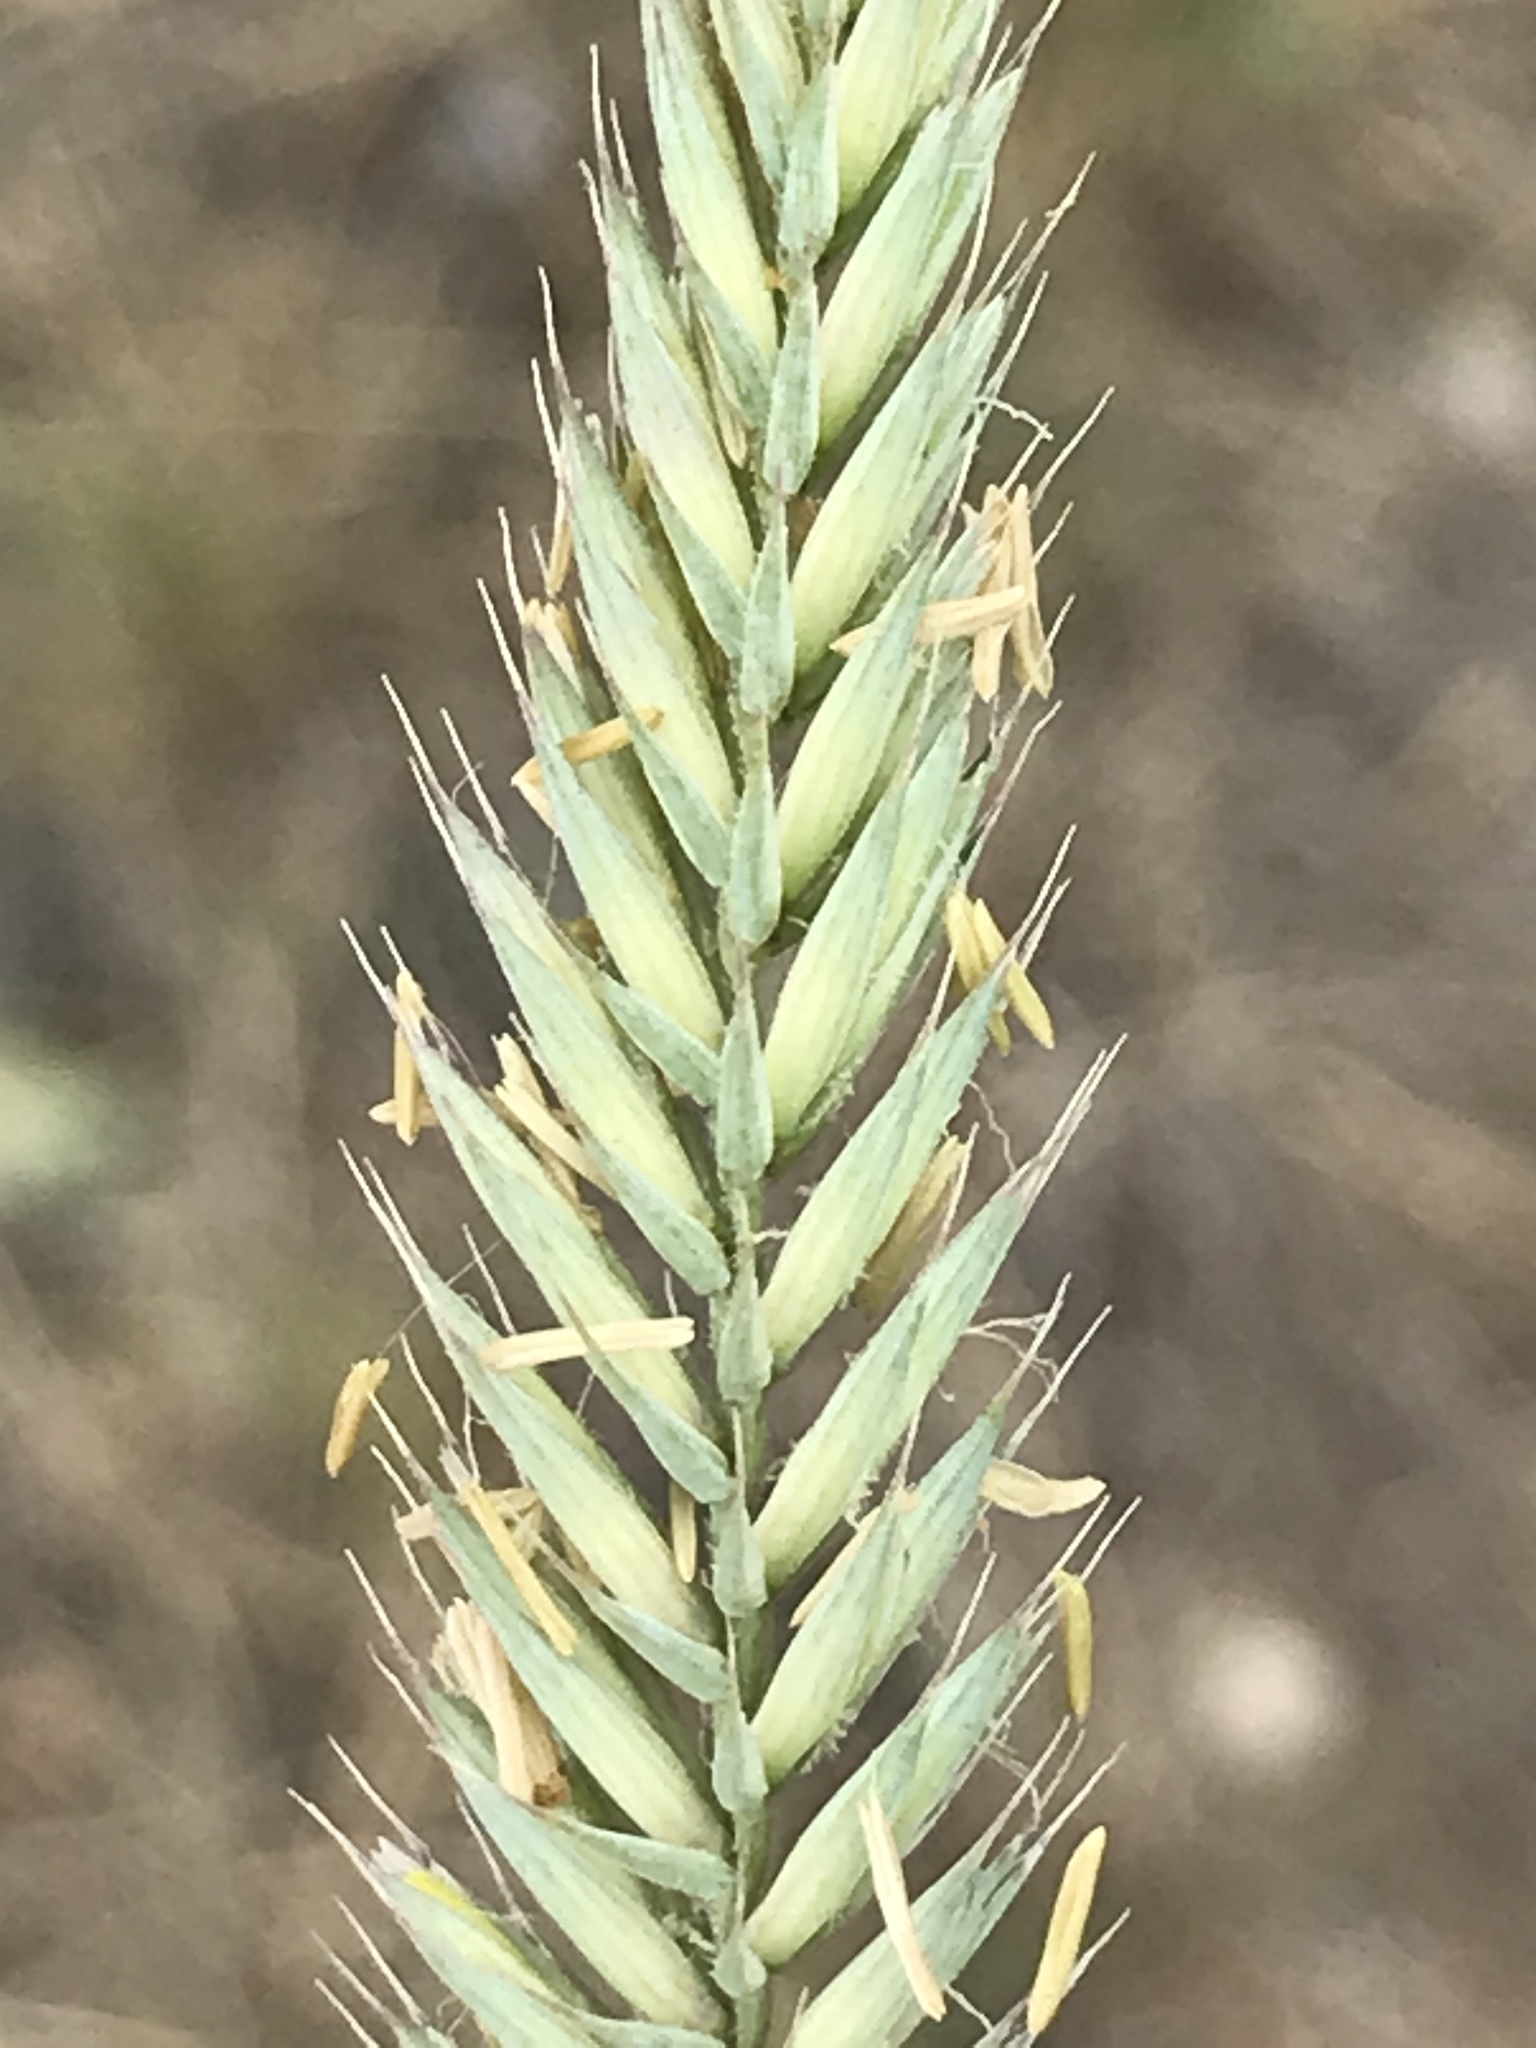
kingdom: Plantae
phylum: Tracheophyta
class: Liliopsida
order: Poales
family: Poaceae
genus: Agropyron
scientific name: Agropyron cristatum
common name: Crested wheatgrass
